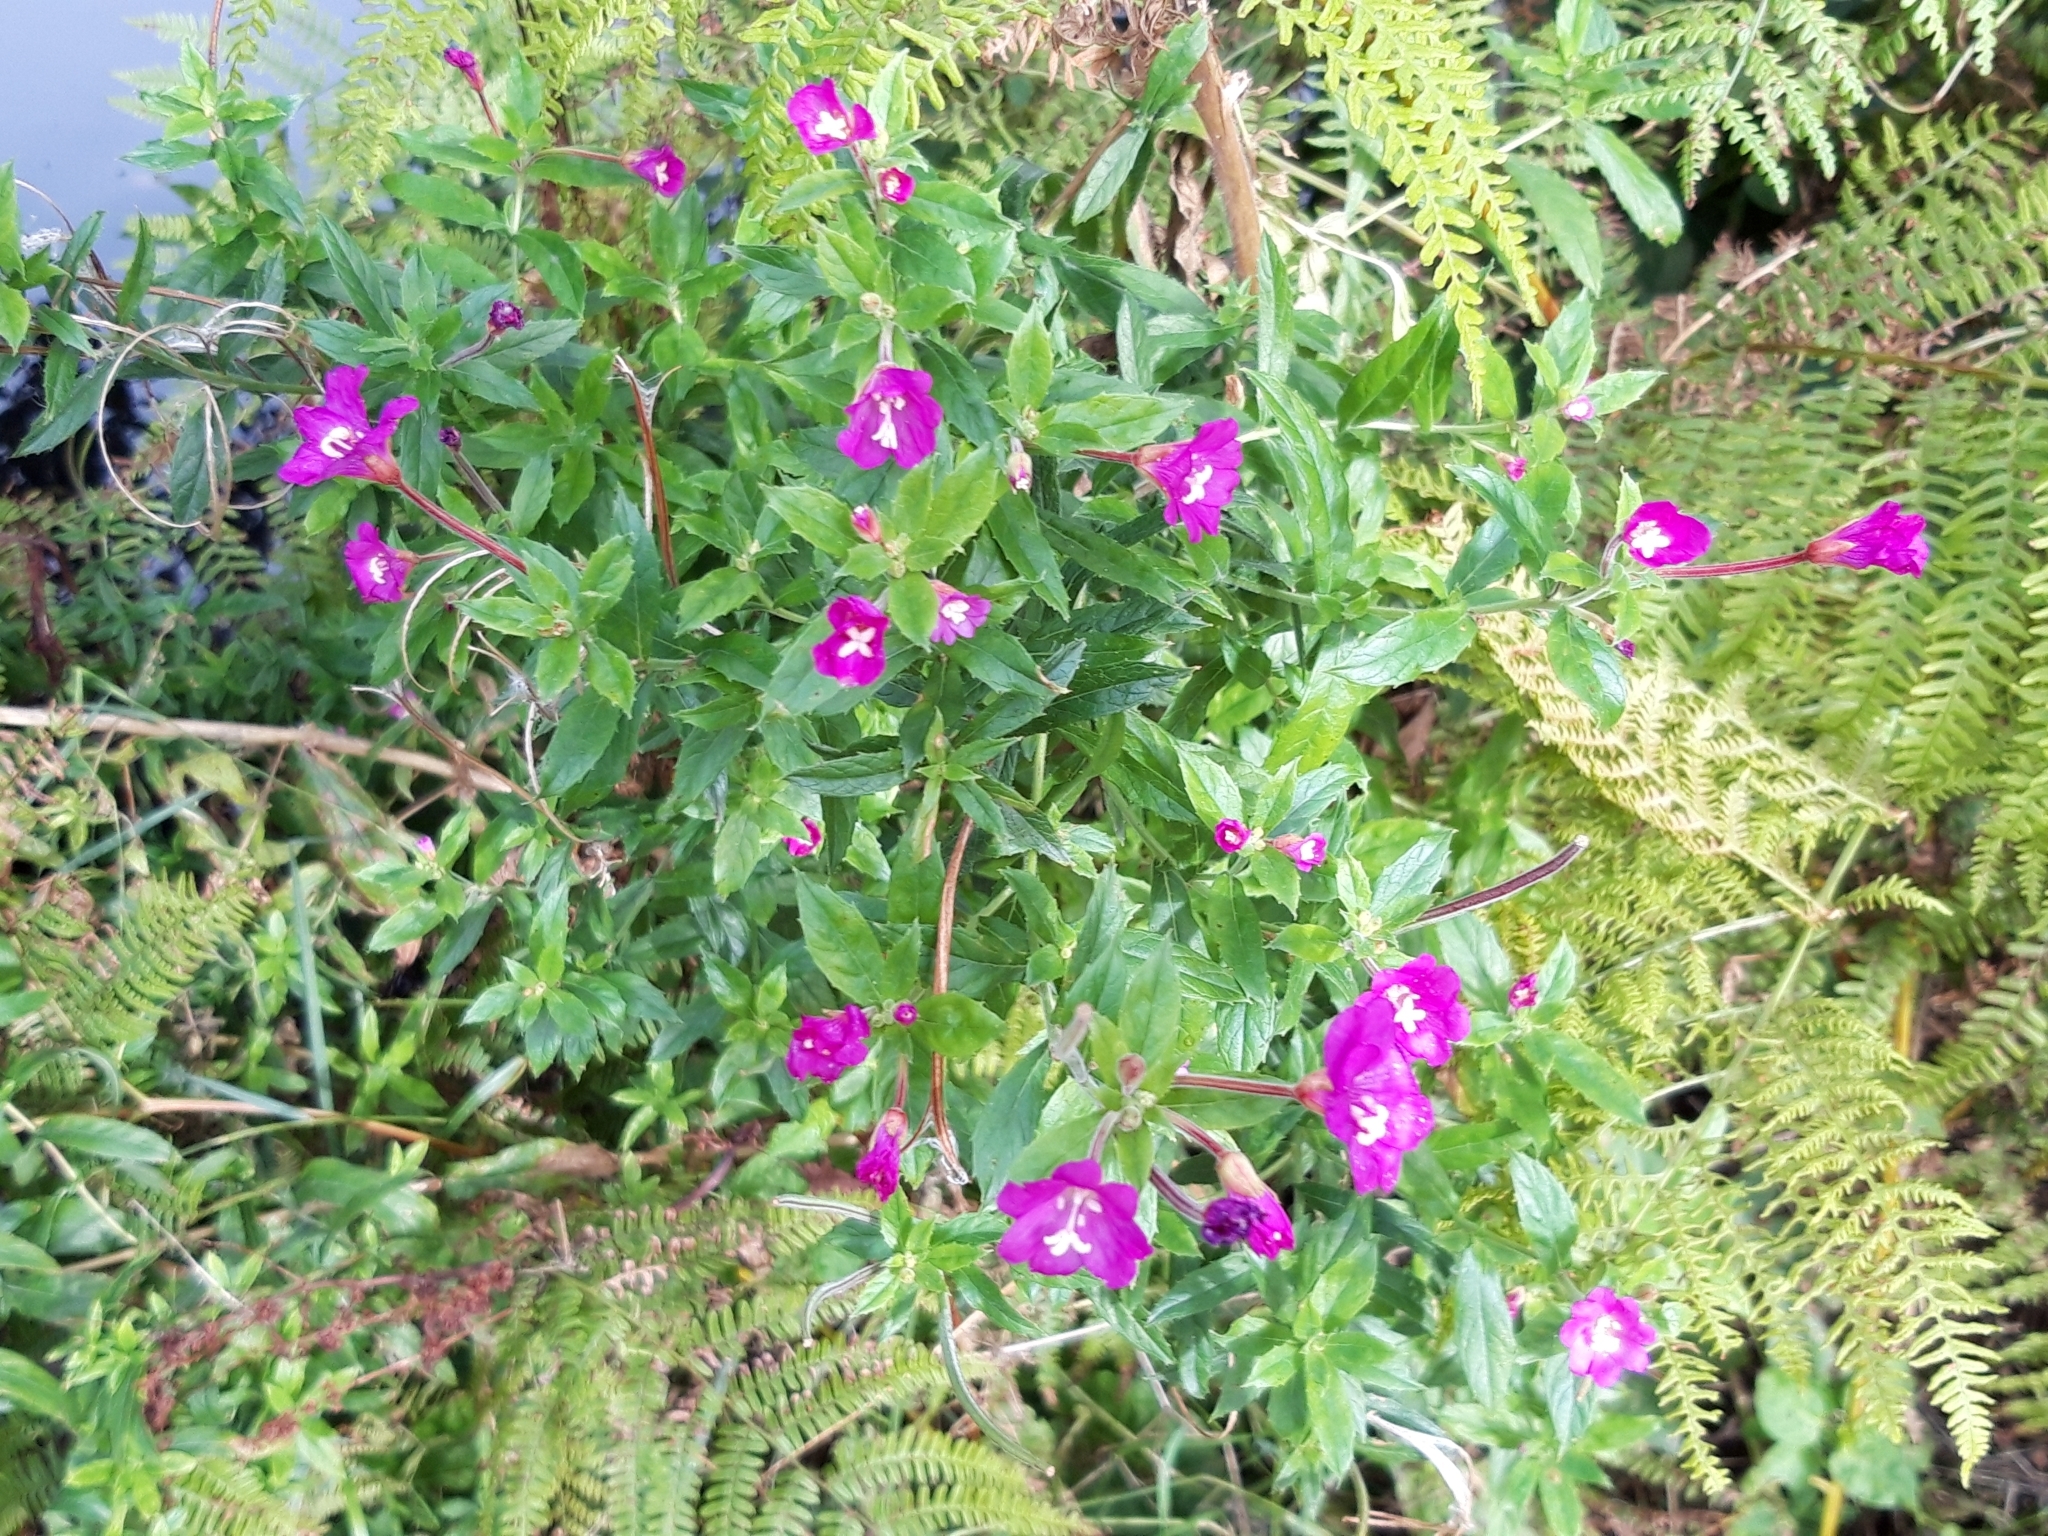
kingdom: Plantae
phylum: Tracheophyta
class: Magnoliopsida
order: Myrtales
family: Onagraceae
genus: Epilobium
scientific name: Epilobium hirsutum
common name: Great willowherb
